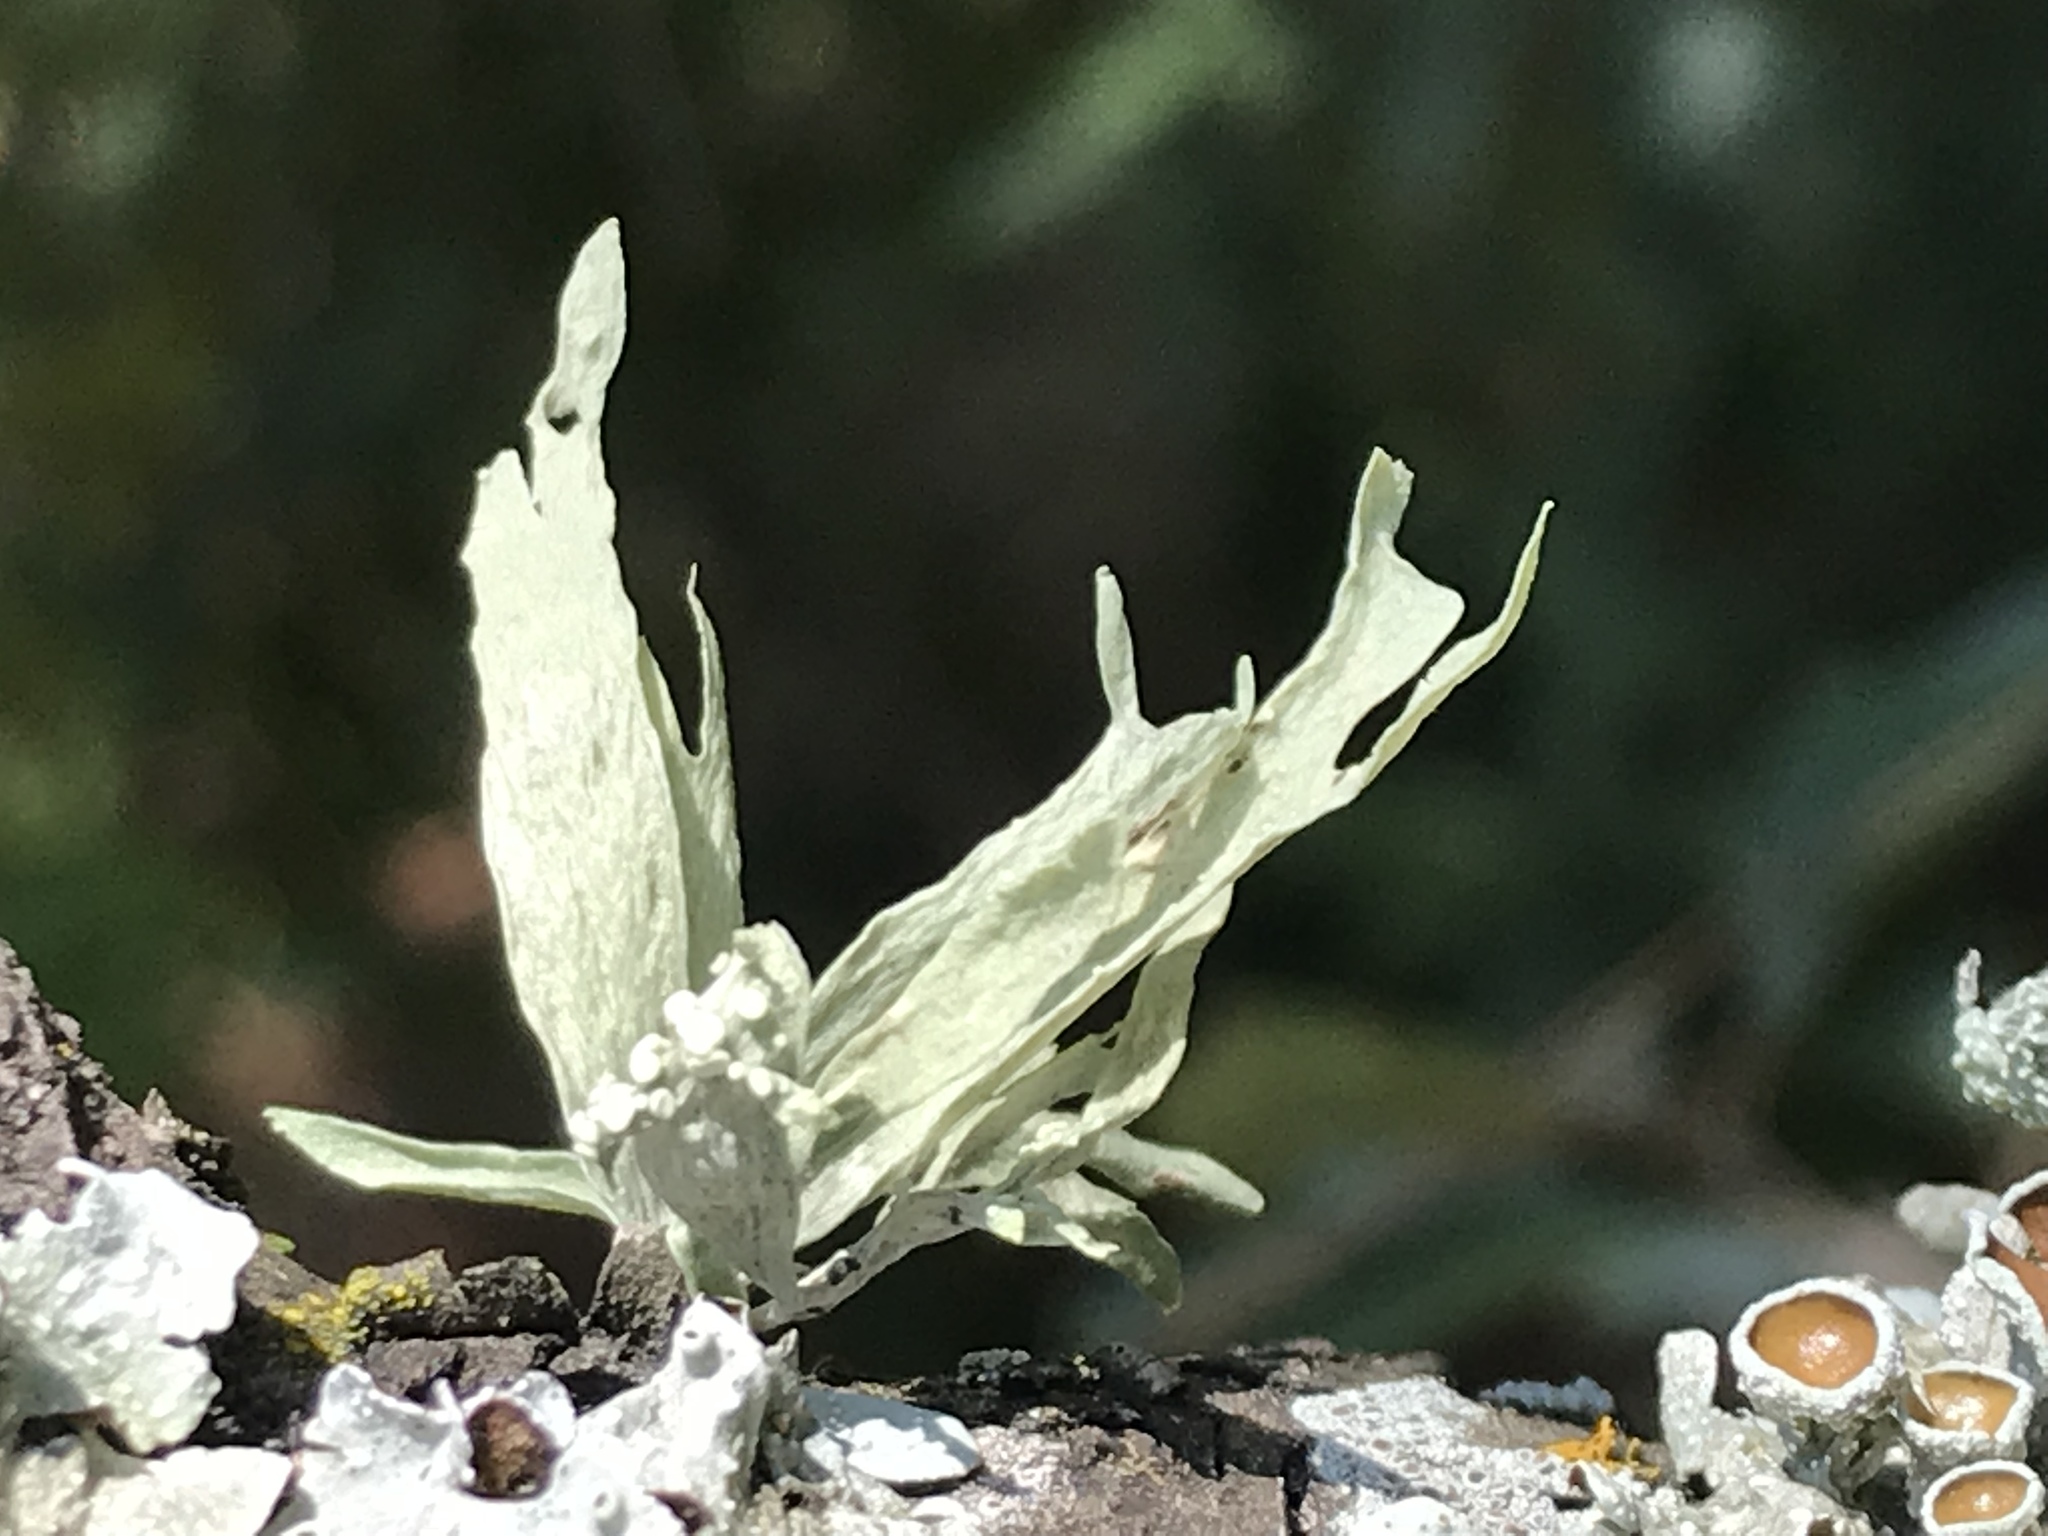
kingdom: Fungi
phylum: Ascomycota
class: Lecanoromycetes
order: Lecanorales
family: Ramalinaceae
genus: Ramalina
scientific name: Ramalina celastri
